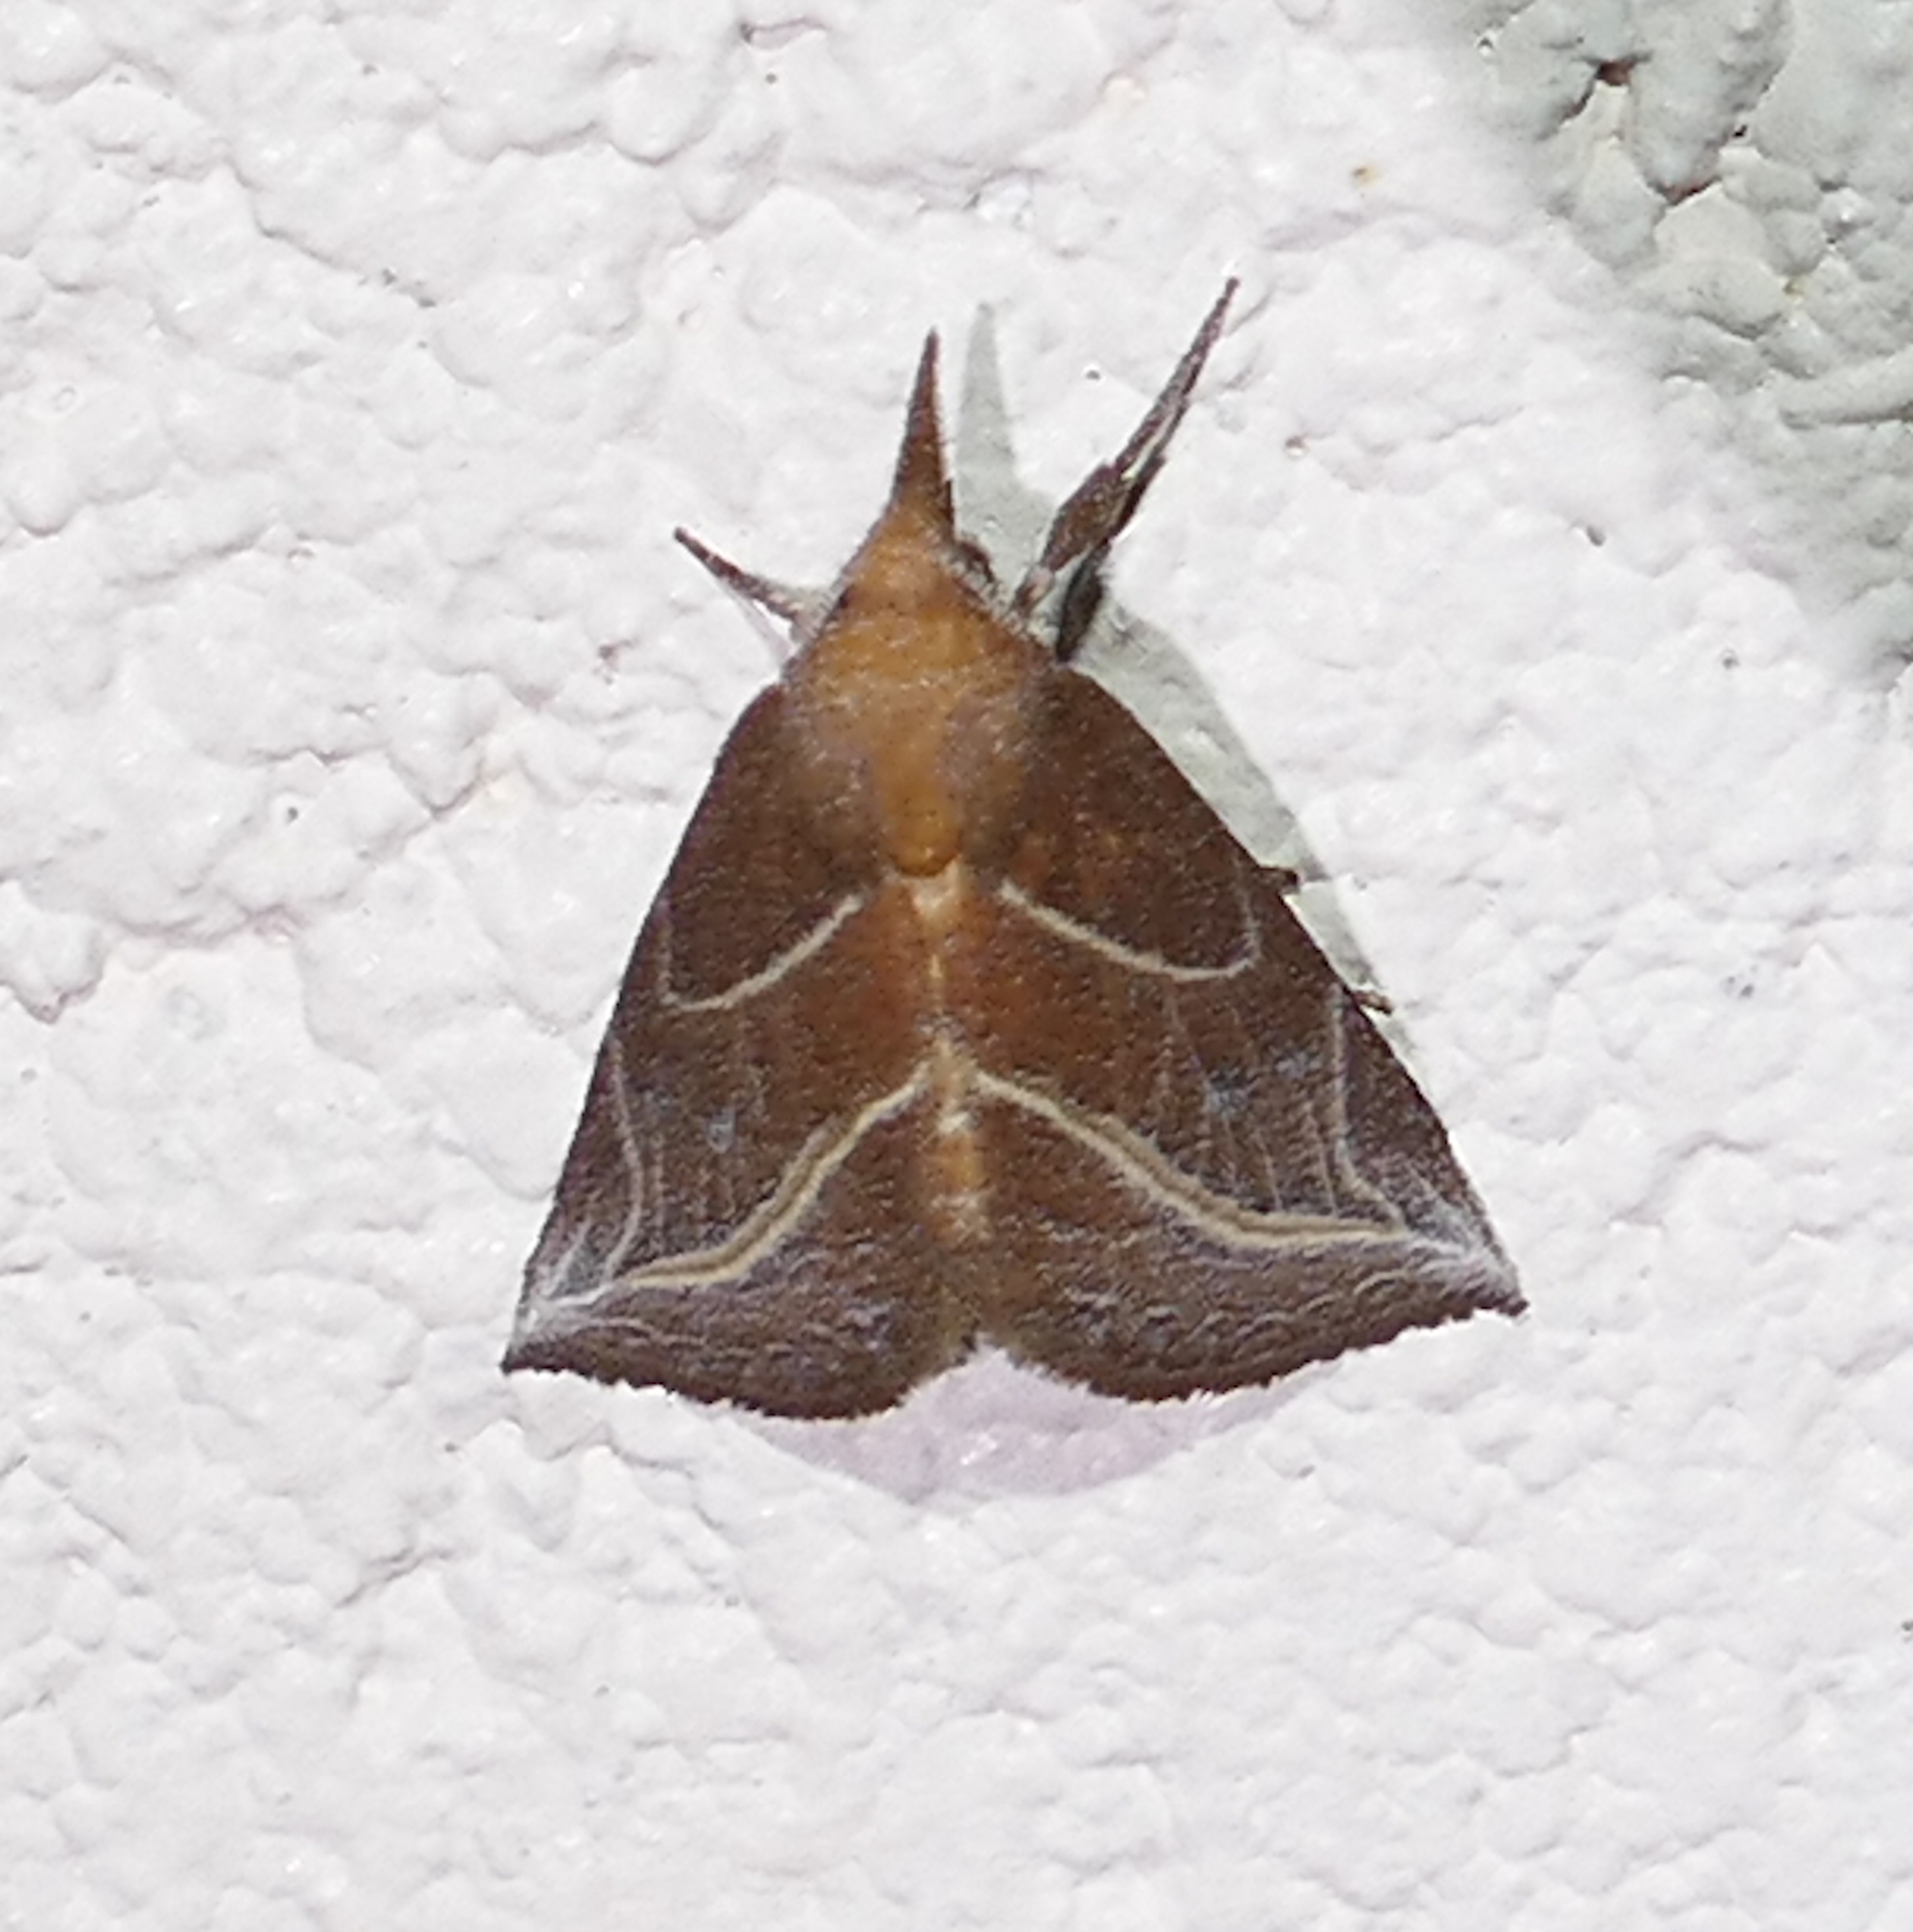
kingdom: Animalia
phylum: Arthropoda
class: Insecta
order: Lepidoptera
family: Erebidae
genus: Phyprosopus
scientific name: Phyprosopus callitrichoides
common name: Curved-lined owlet
